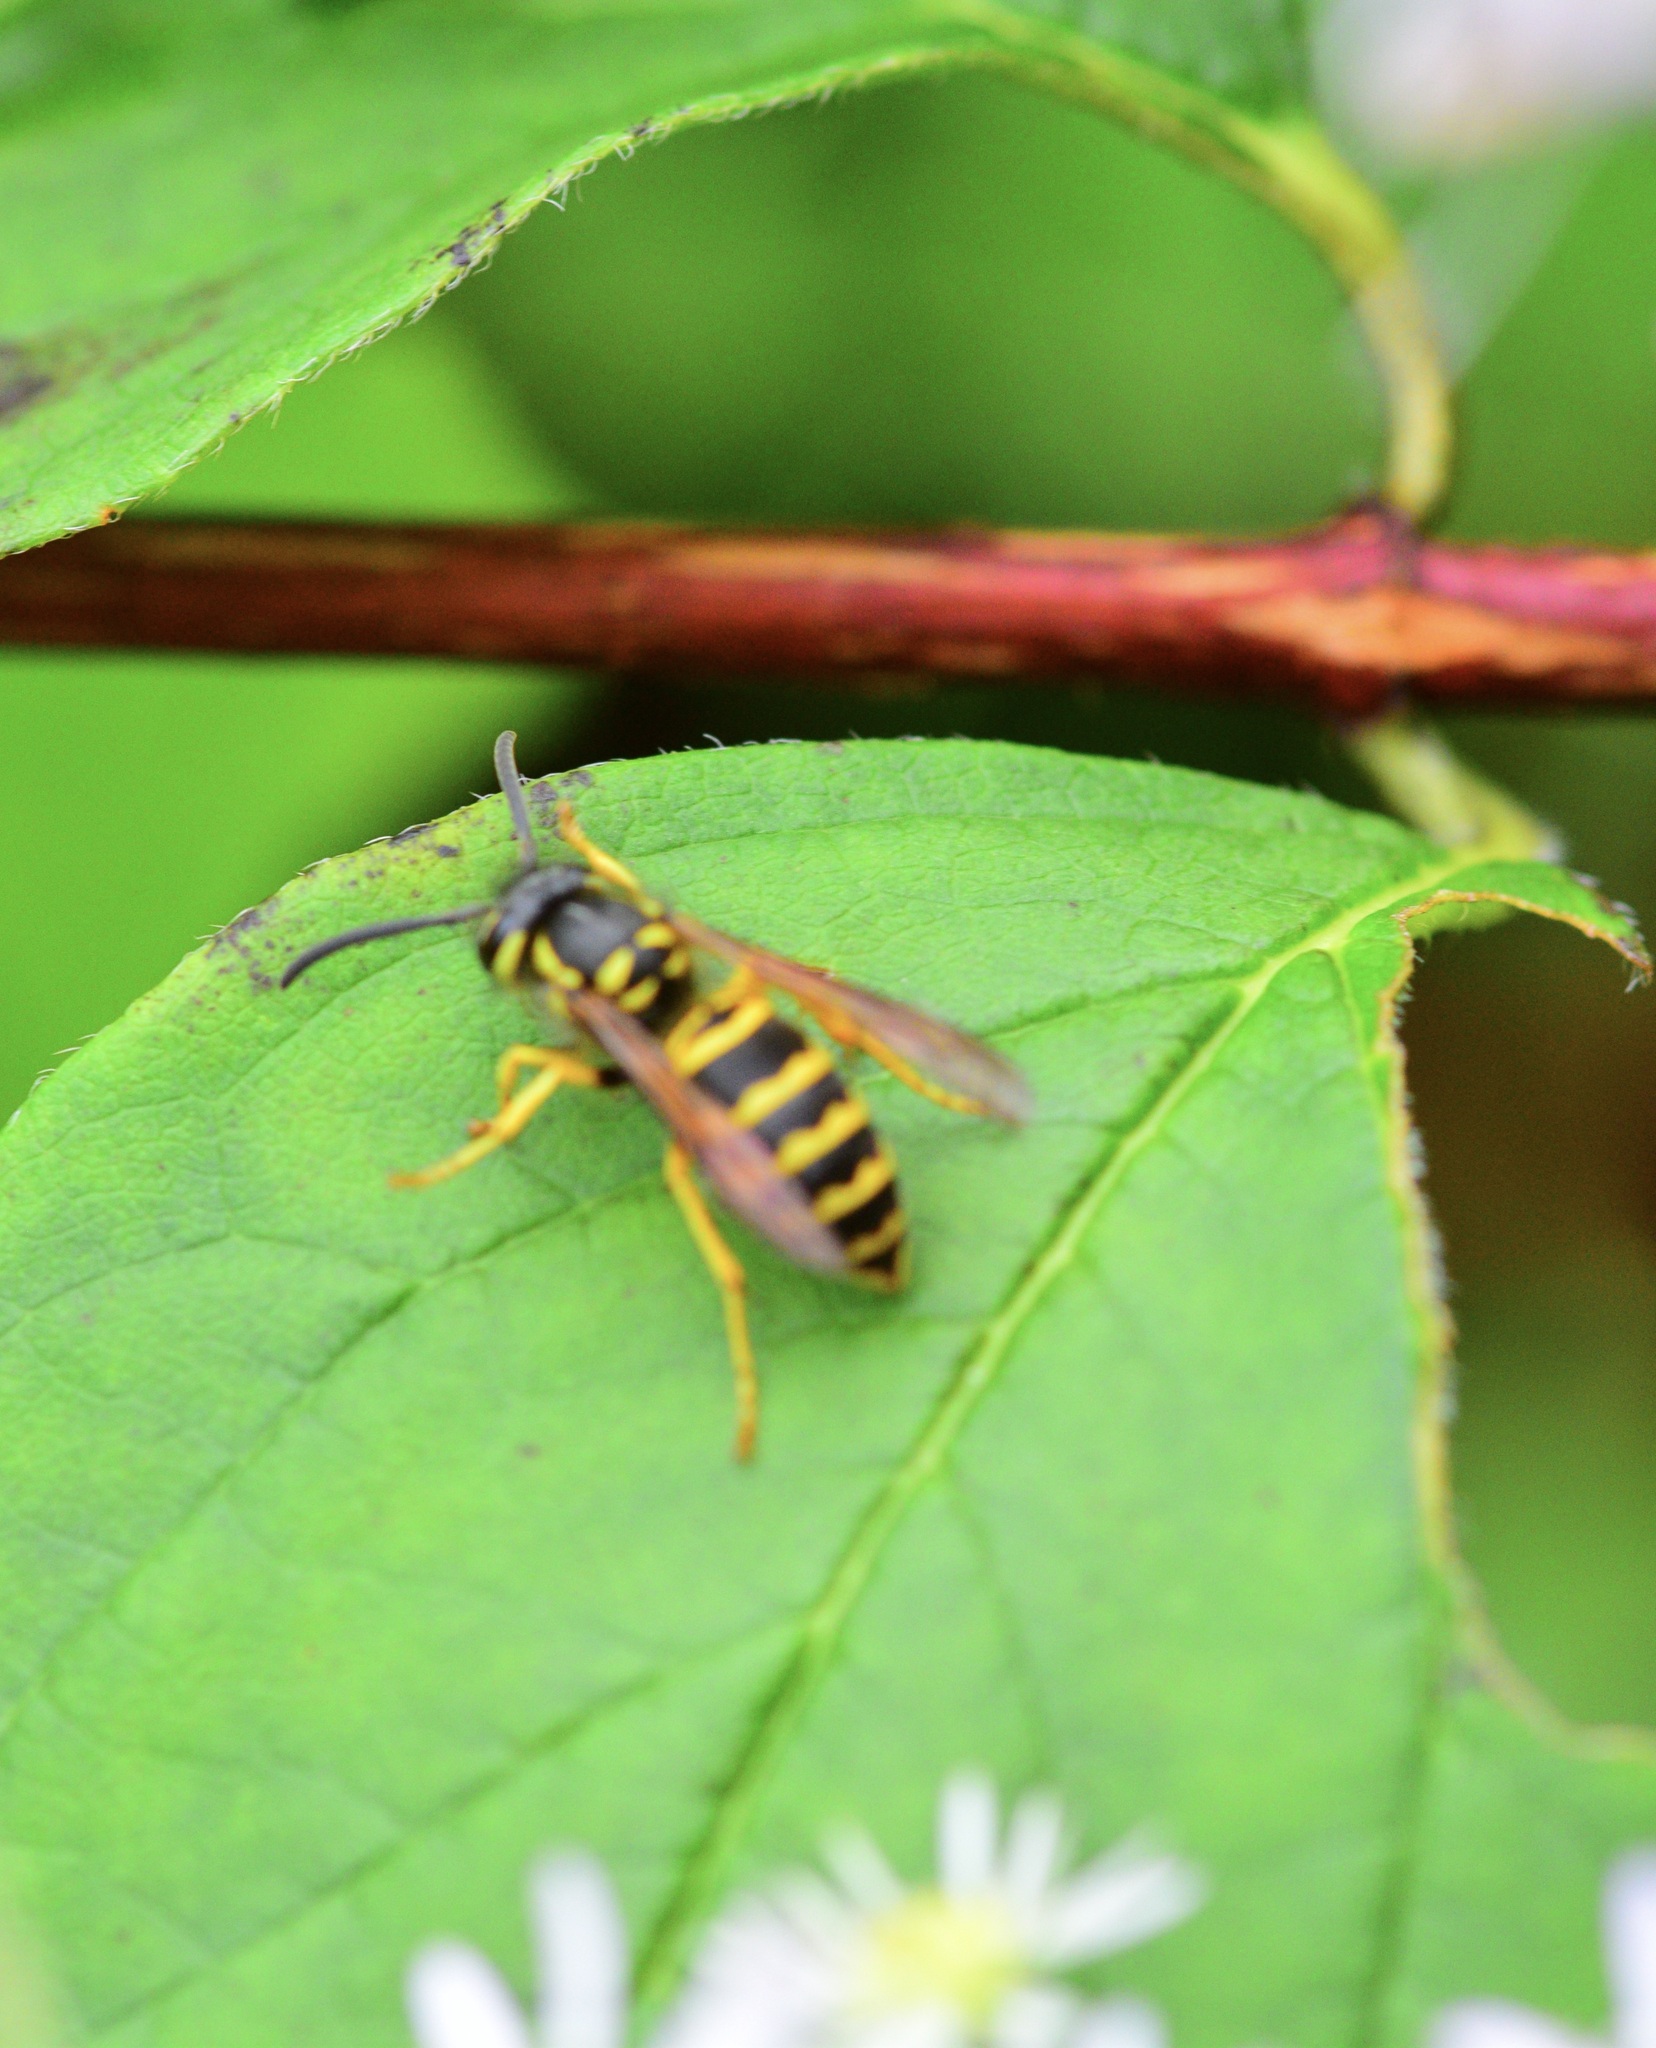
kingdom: Animalia
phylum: Arthropoda
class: Insecta
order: Hymenoptera
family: Vespidae
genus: Vespula
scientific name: Vespula maculifrons
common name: Eastern yellowjacket
